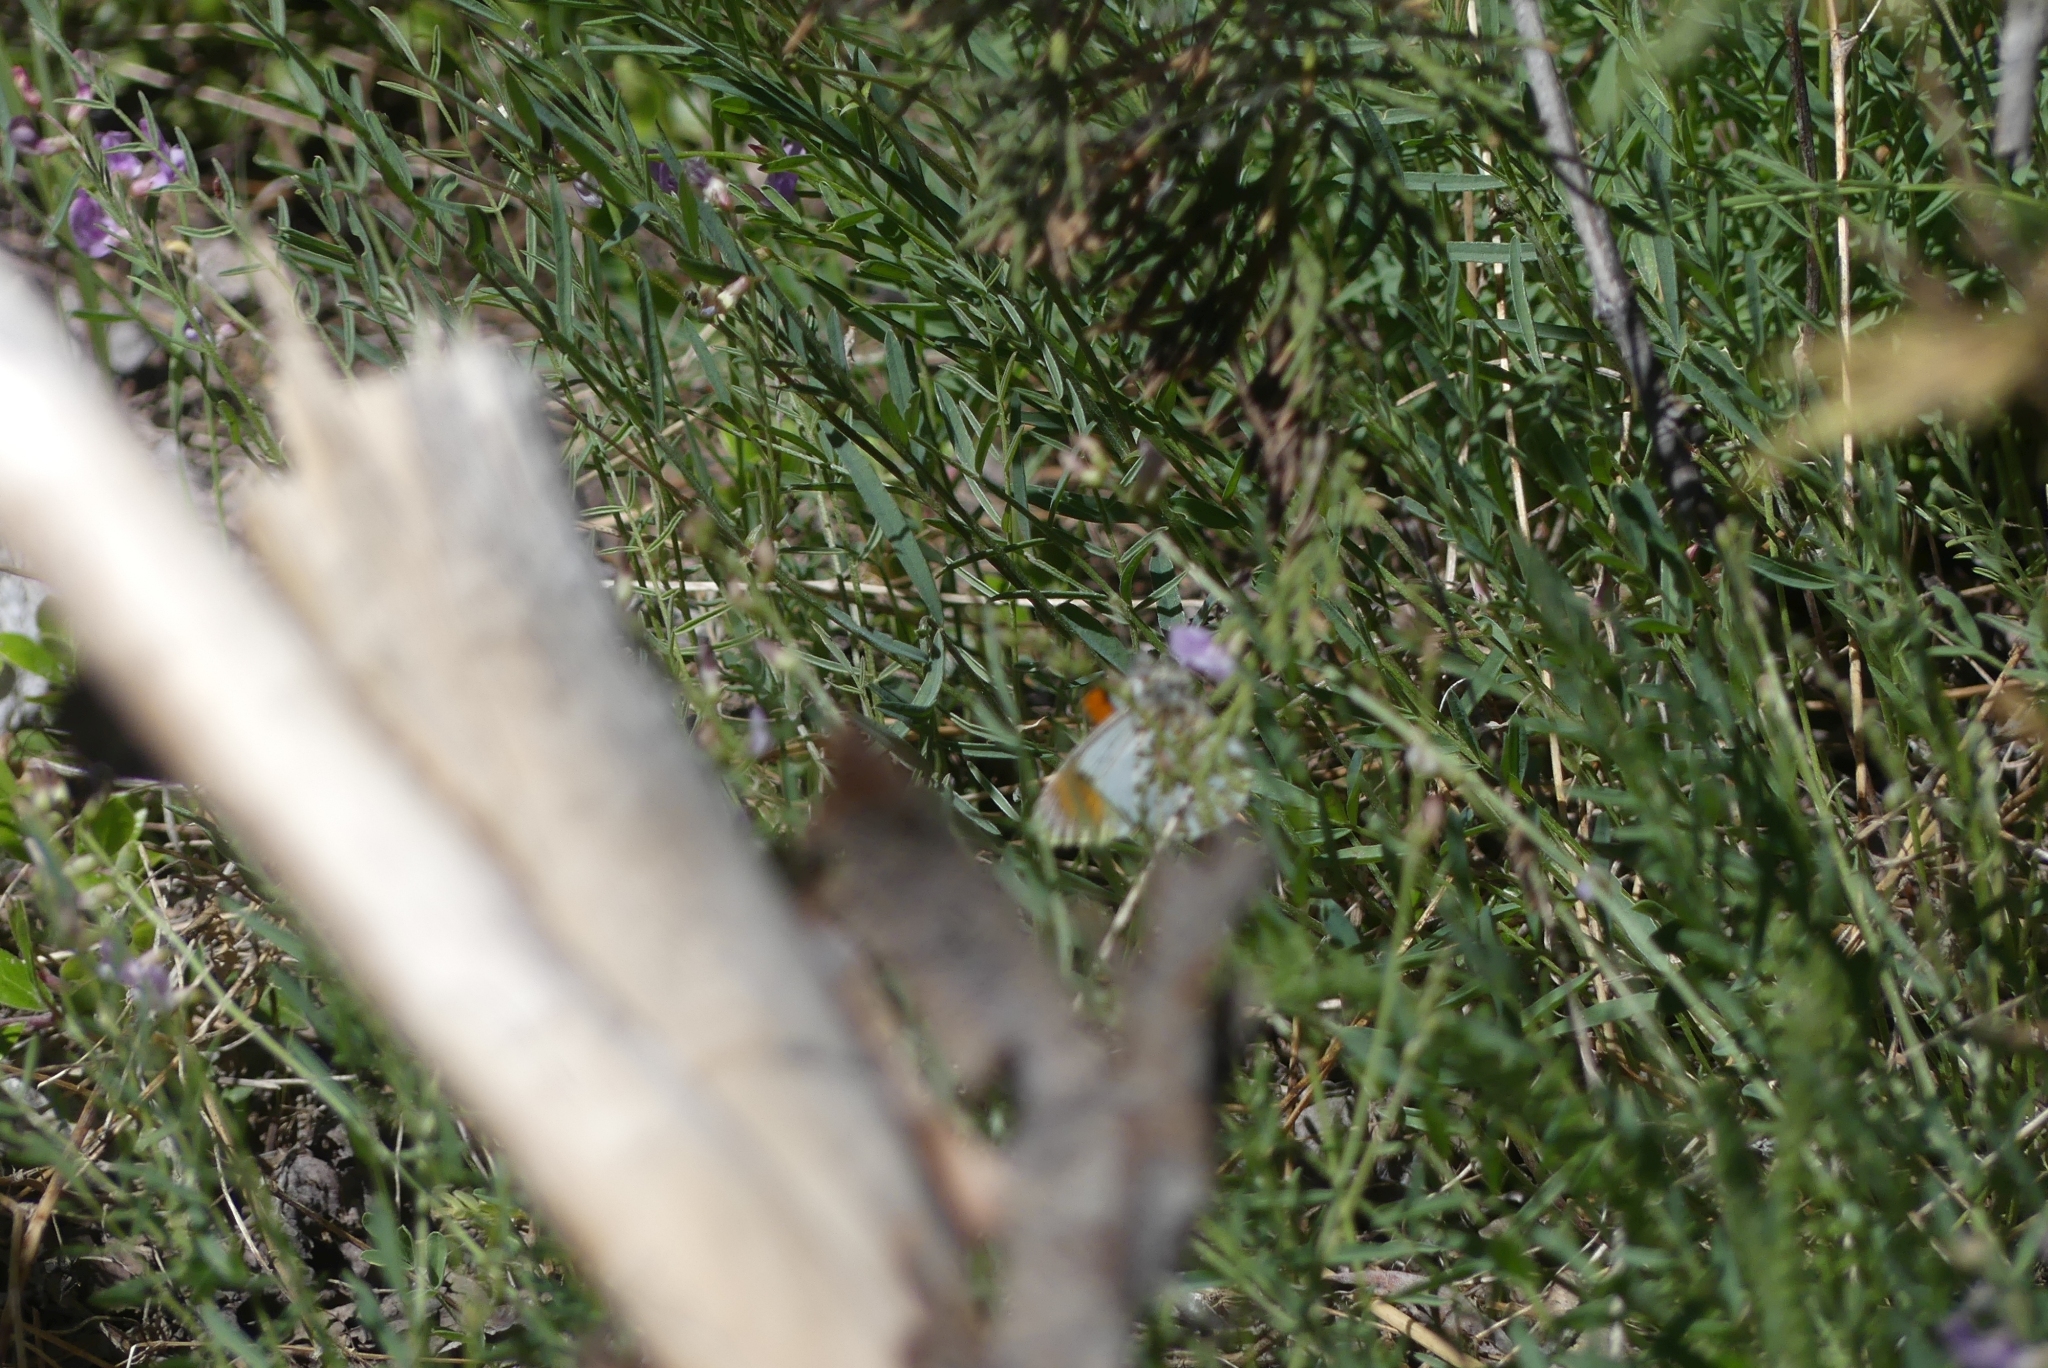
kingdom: Animalia
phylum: Arthropoda
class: Insecta
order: Lepidoptera
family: Pieridae
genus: Anthocharis
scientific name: Anthocharis julia
